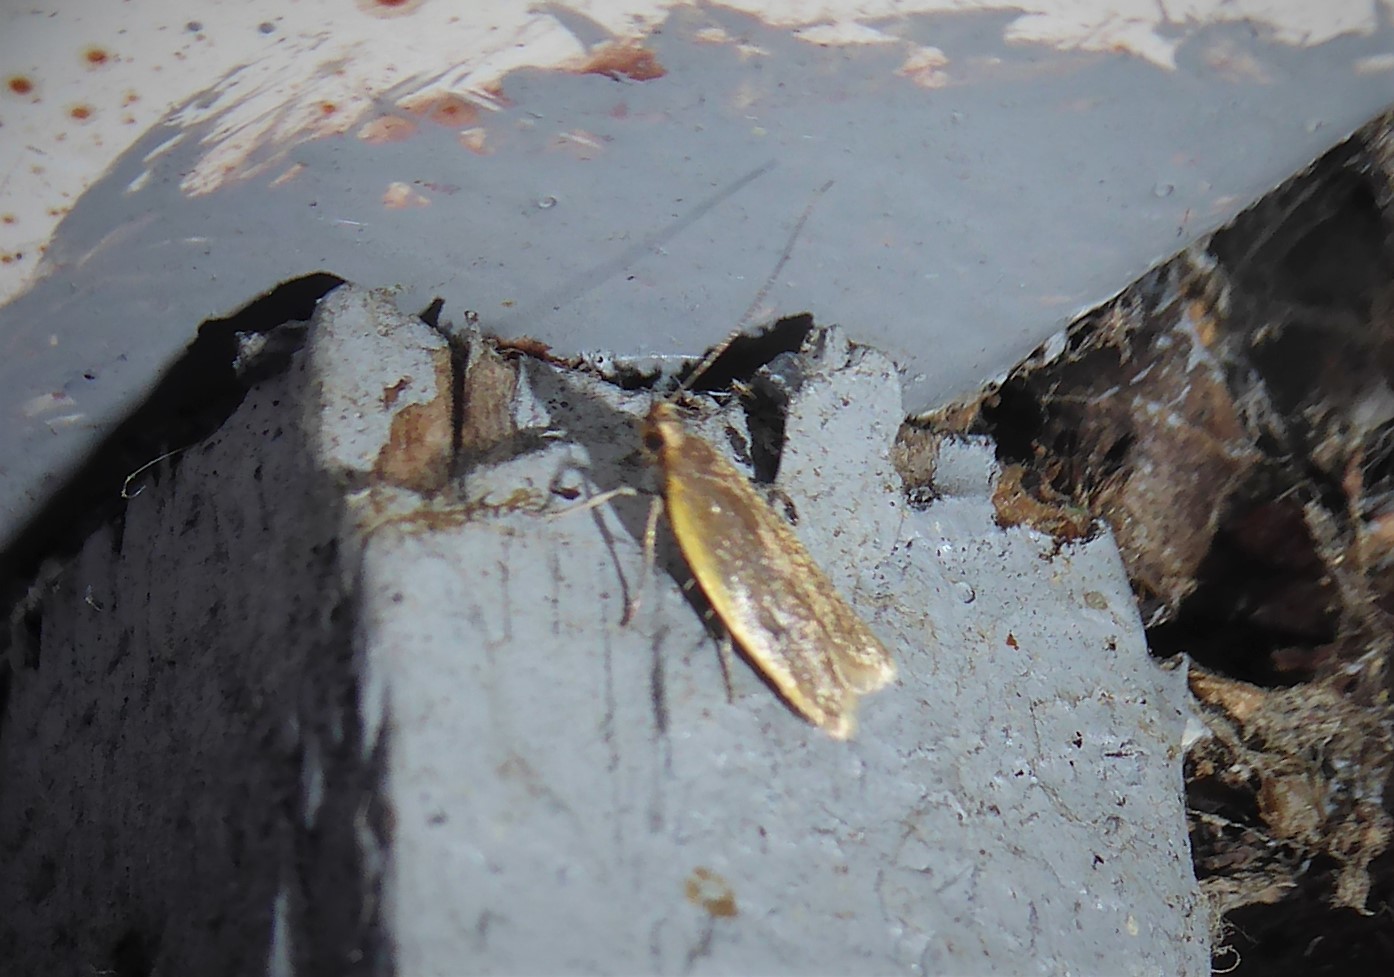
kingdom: Animalia
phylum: Arthropoda
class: Insecta
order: Lepidoptera
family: Oecophoridae
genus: Gymnobathra
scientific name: Gymnobathra parca
